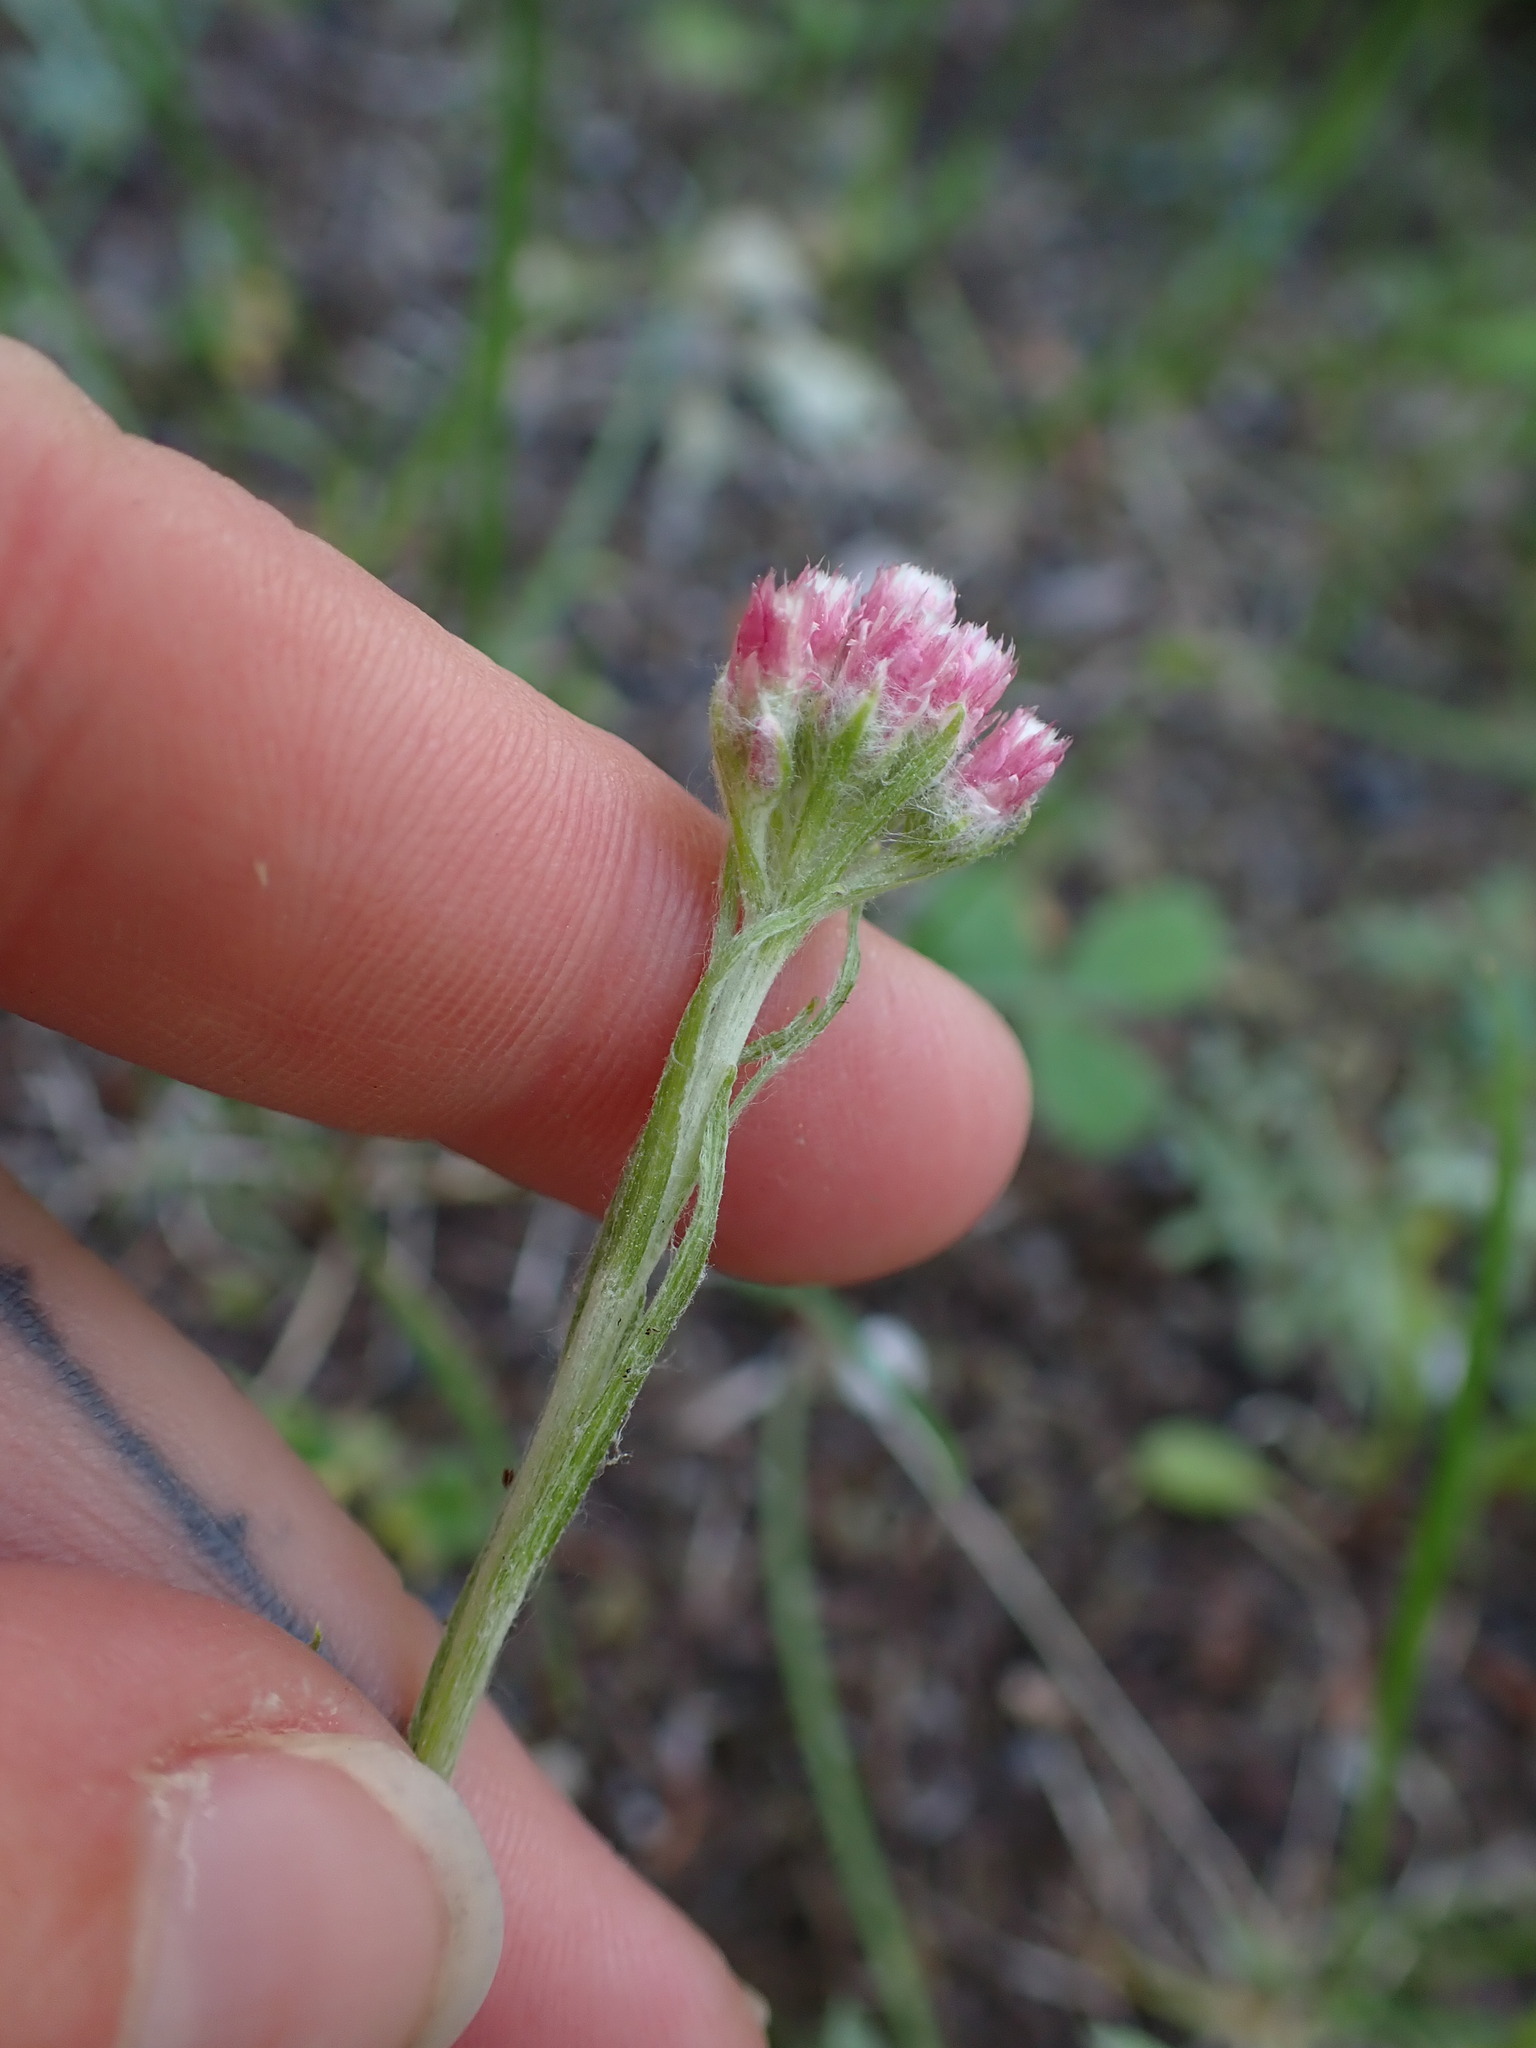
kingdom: Plantae
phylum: Tracheophyta
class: Magnoliopsida
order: Asterales
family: Asteraceae
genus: Antennaria
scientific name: Antennaria rosea
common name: Rosy pussytoes
